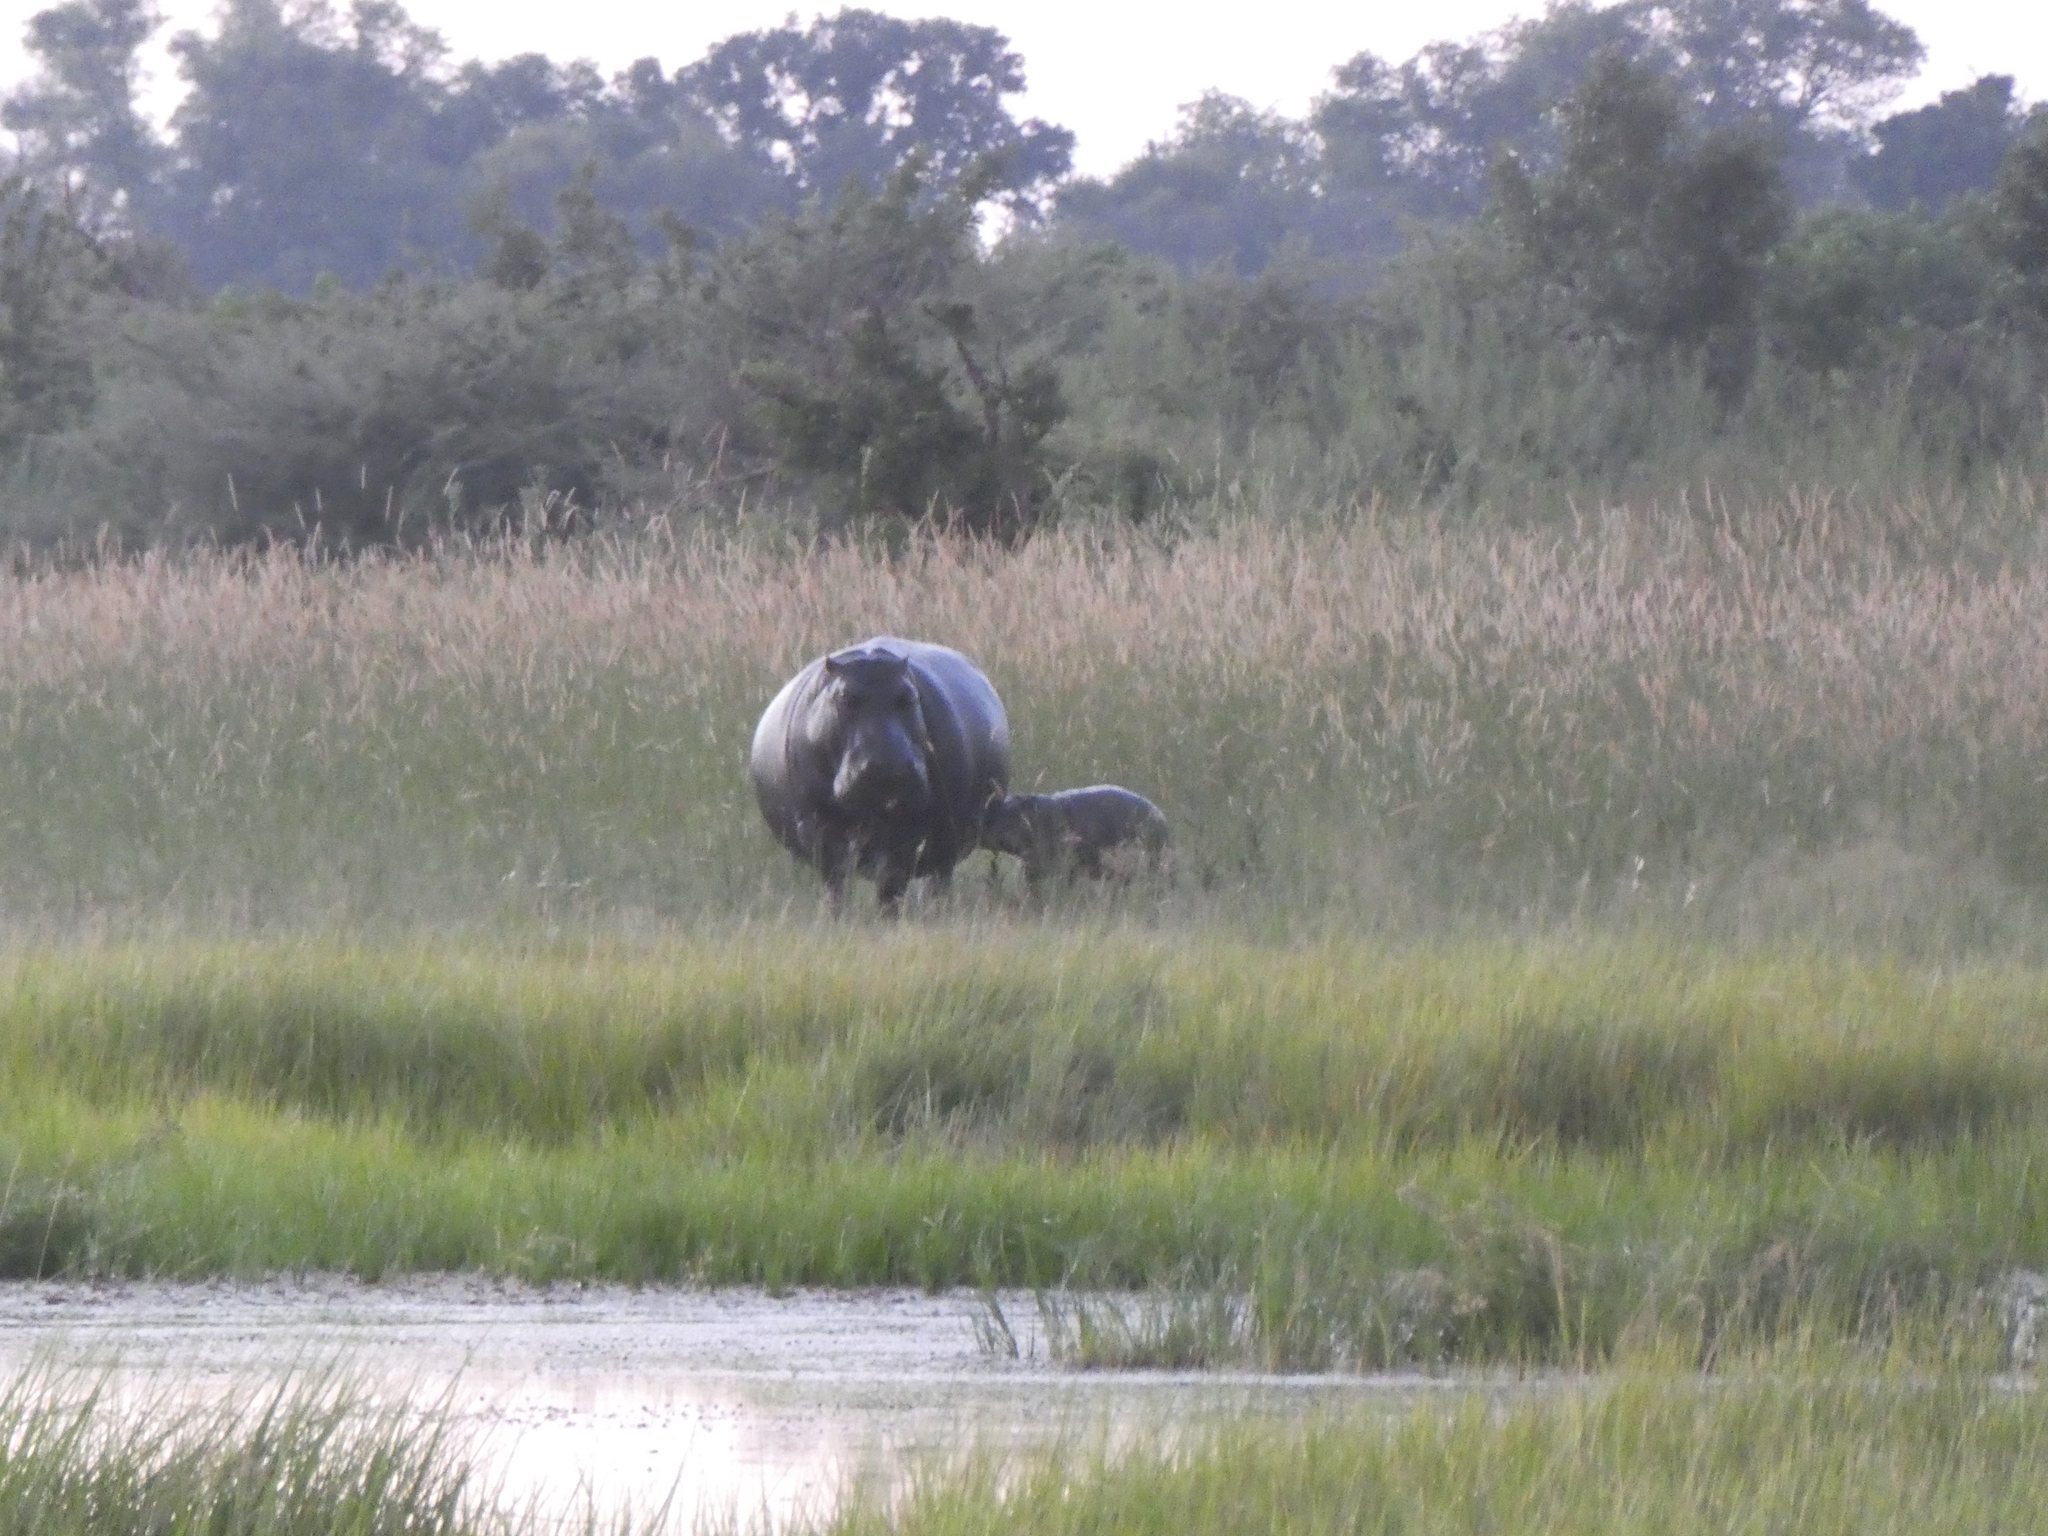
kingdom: Animalia
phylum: Chordata
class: Mammalia
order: Artiodactyla
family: Hippopotamidae
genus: Hippopotamus
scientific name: Hippopotamus amphibius
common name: Common hippopotamus
